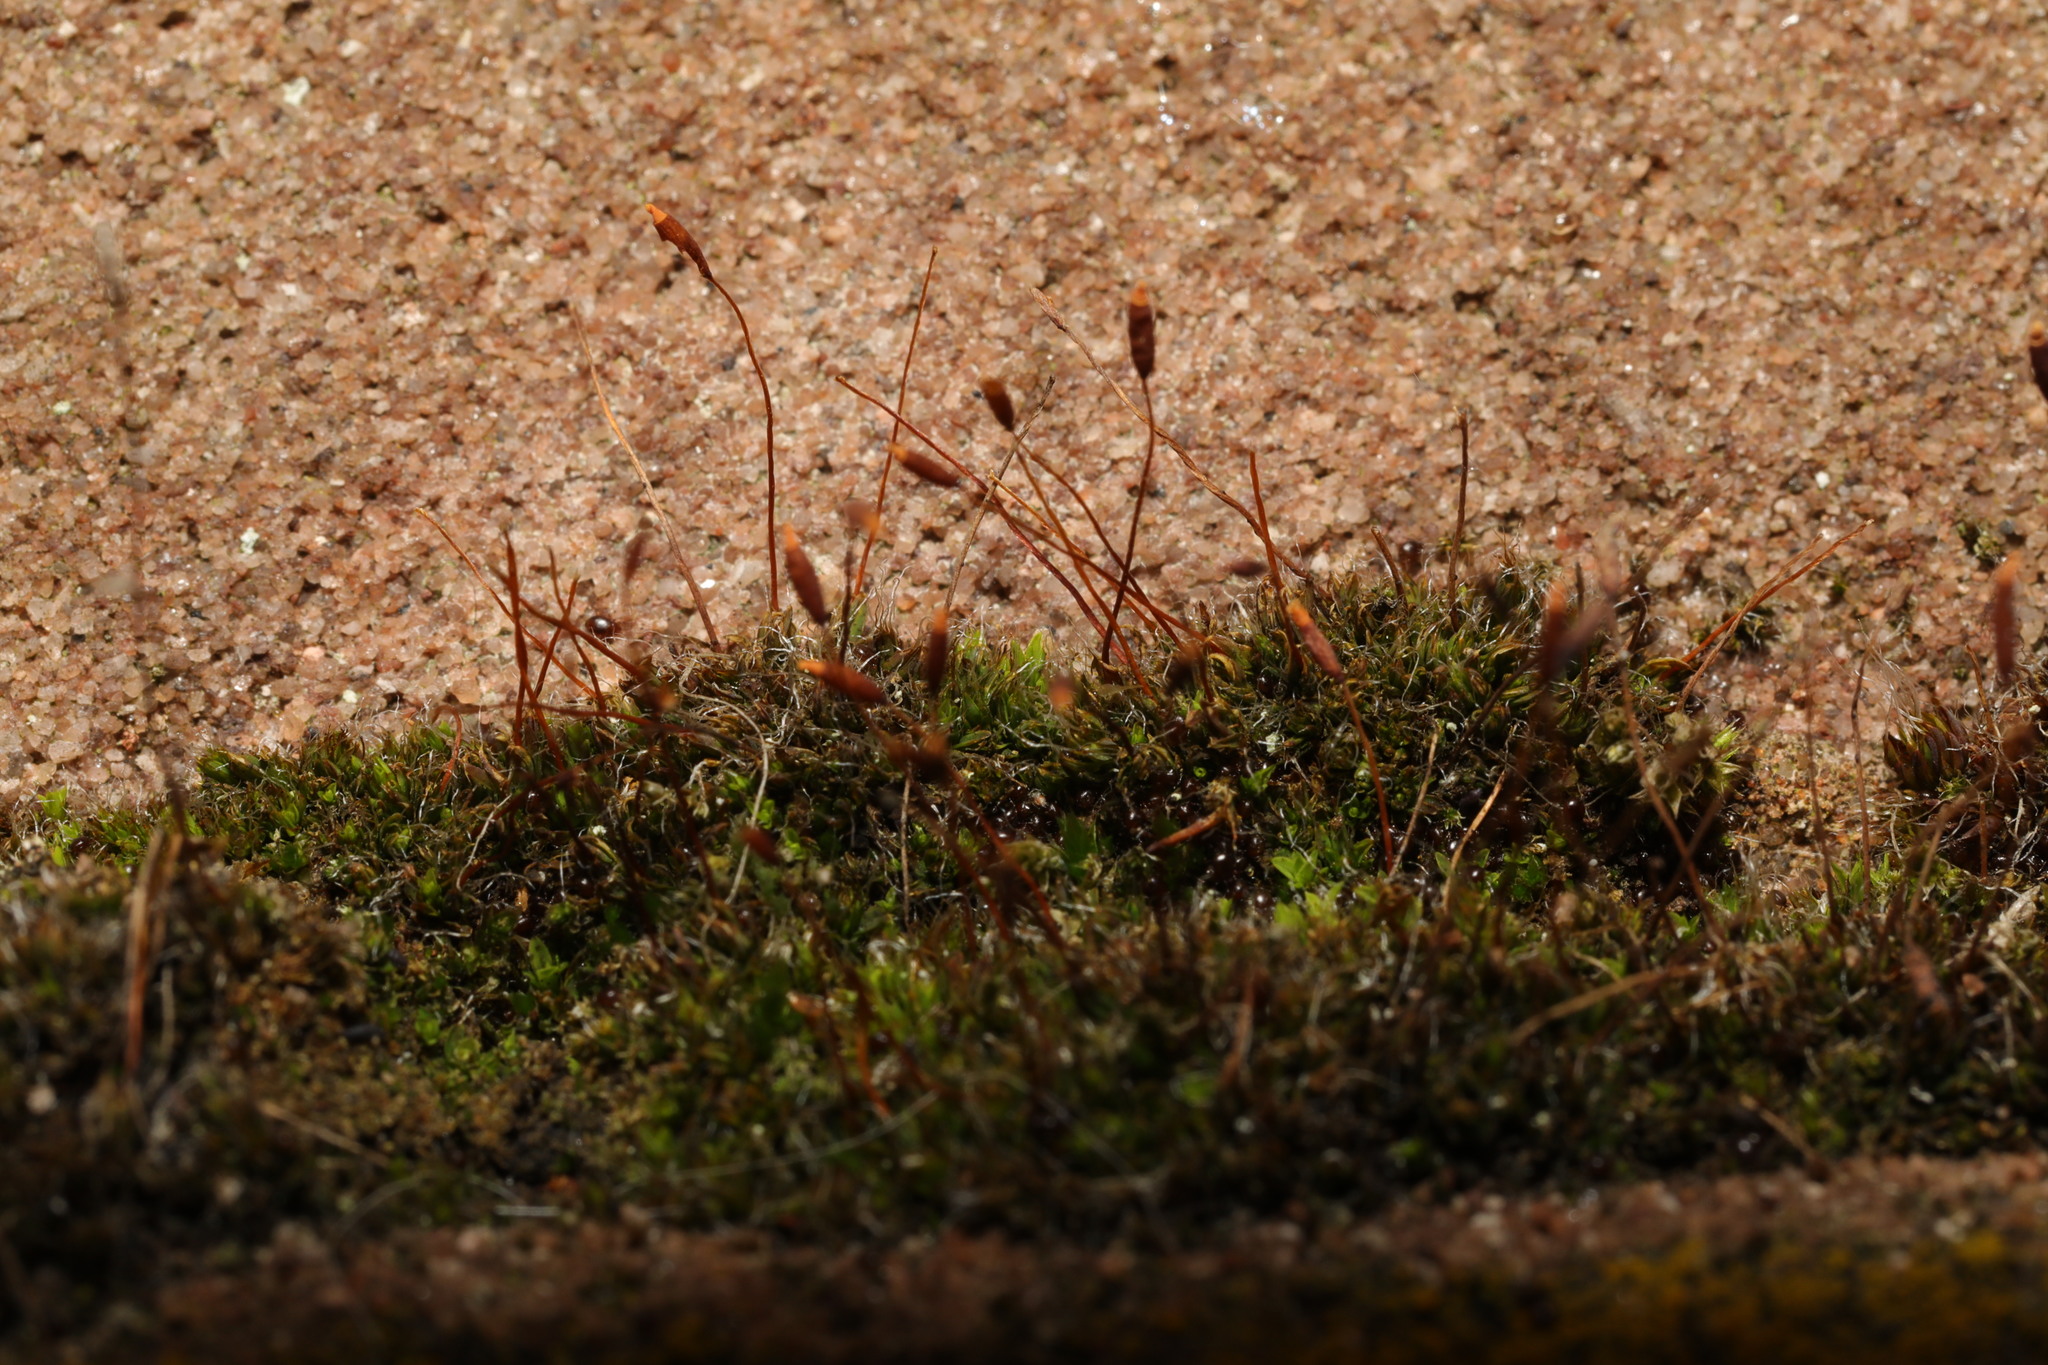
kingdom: Plantae
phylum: Bryophyta
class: Bryopsida
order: Pottiales
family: Pottiaceae
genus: Tortula
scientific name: Tortula muralis
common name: Wall screw-moss
